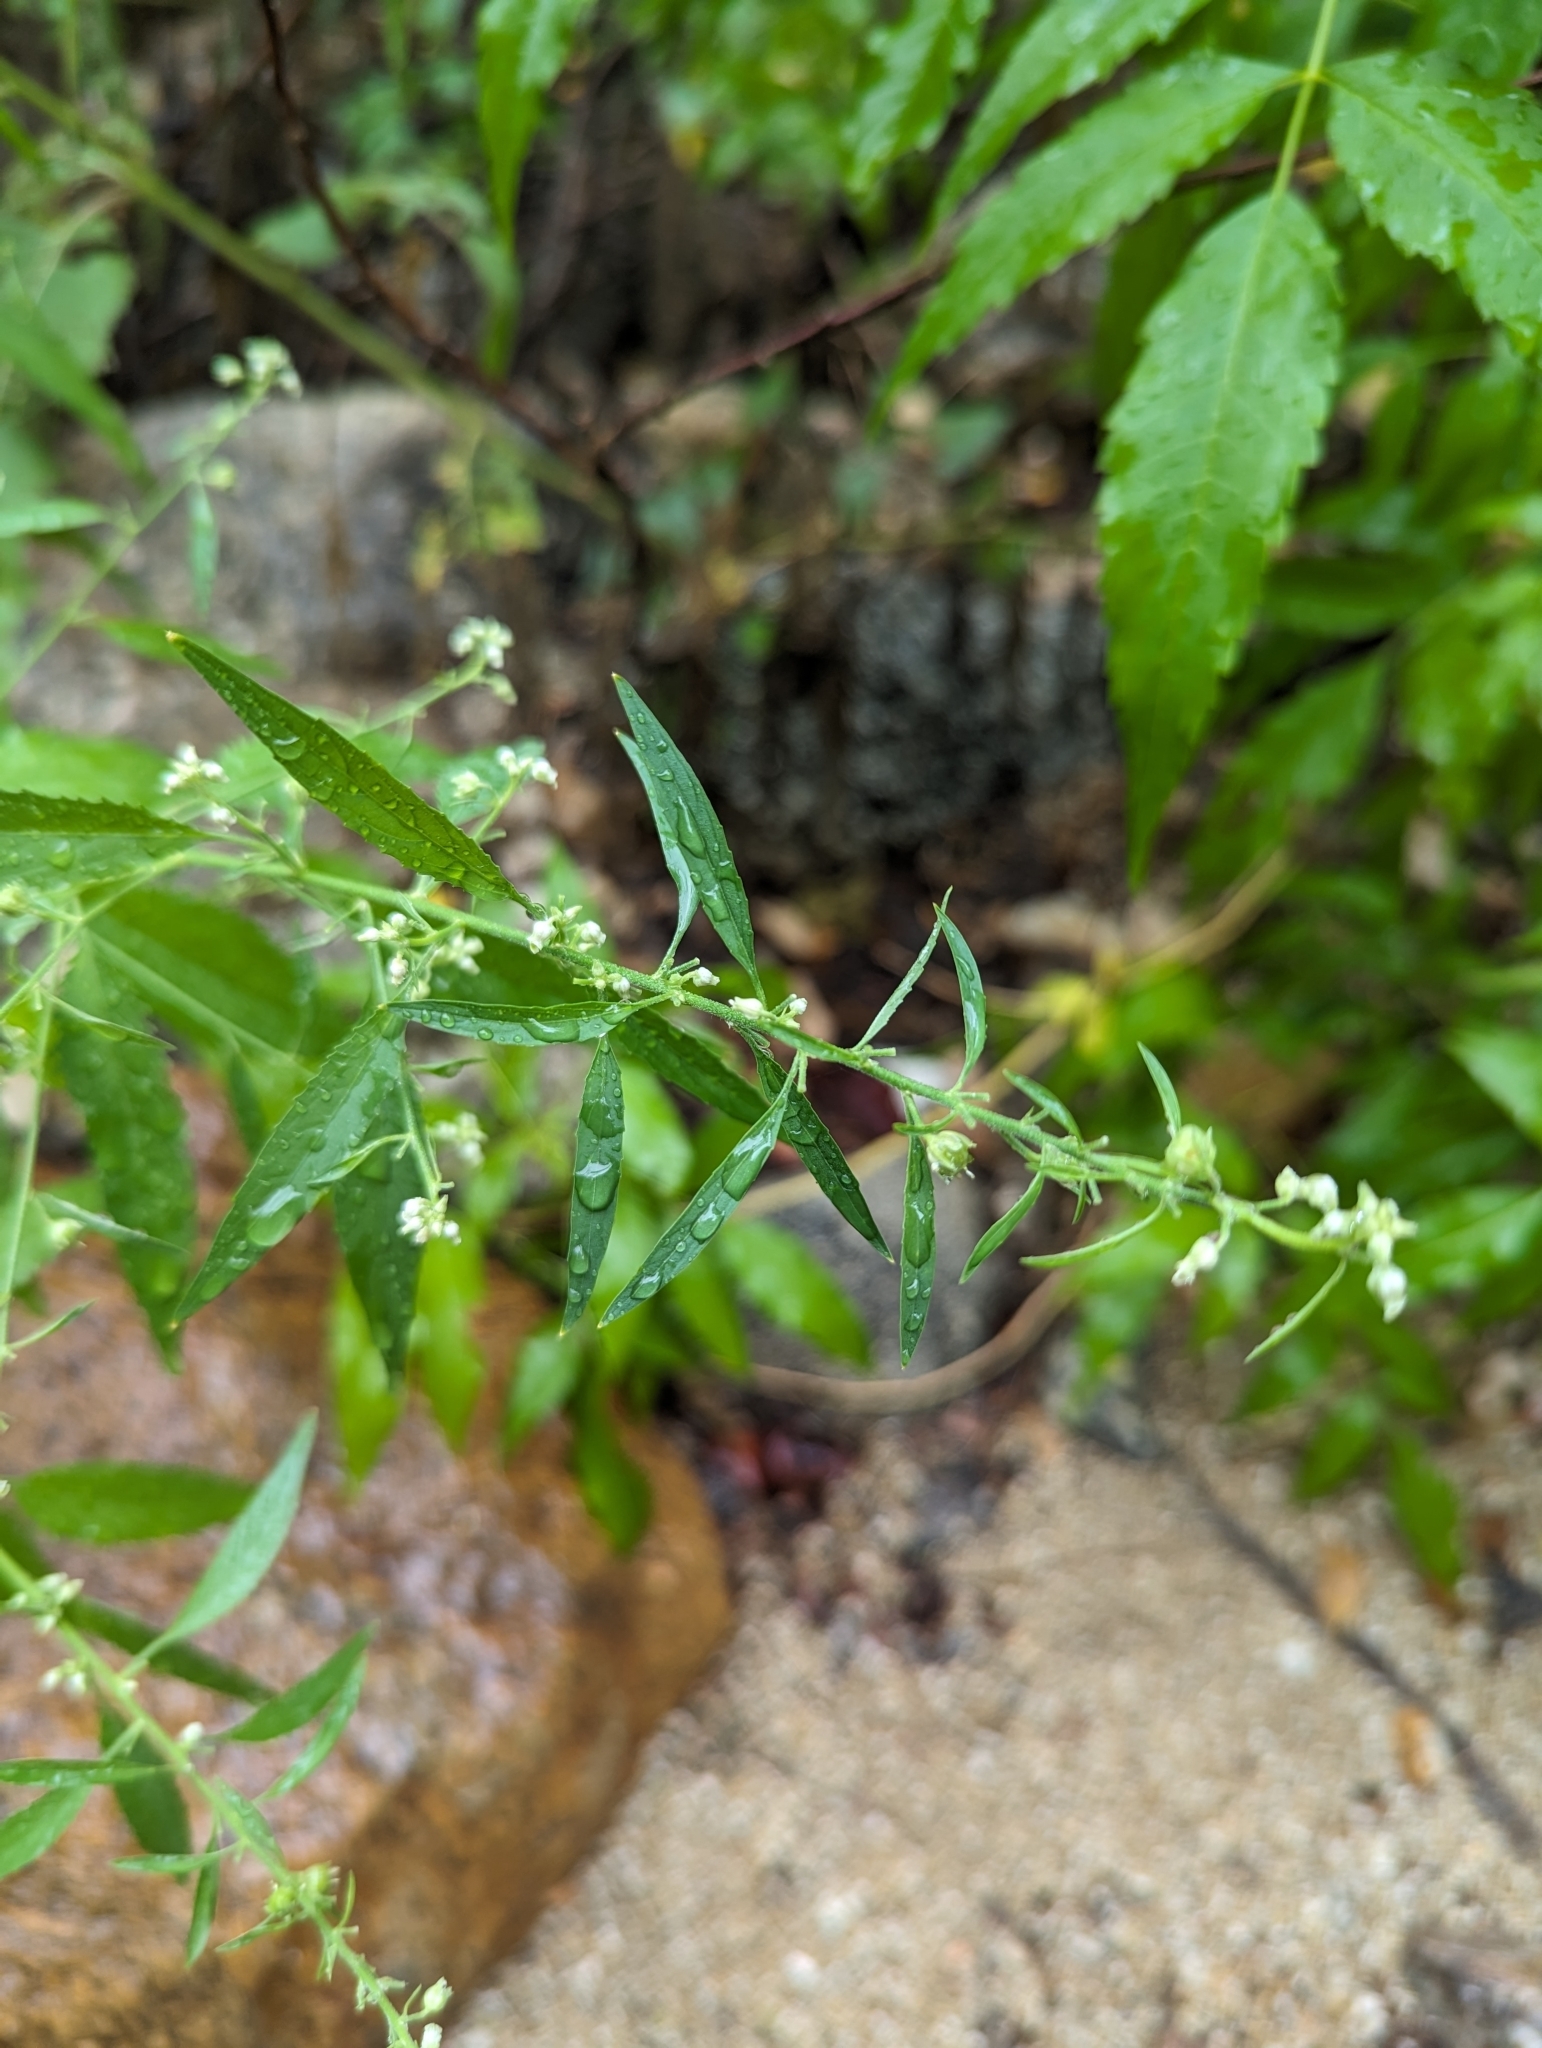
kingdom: Plantae
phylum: Tracheophyta
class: Magnoliopsida
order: Asterales
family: Asteraceae
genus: Parthenium
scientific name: Parthenium hysterophorus
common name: Santa maria feverfew
